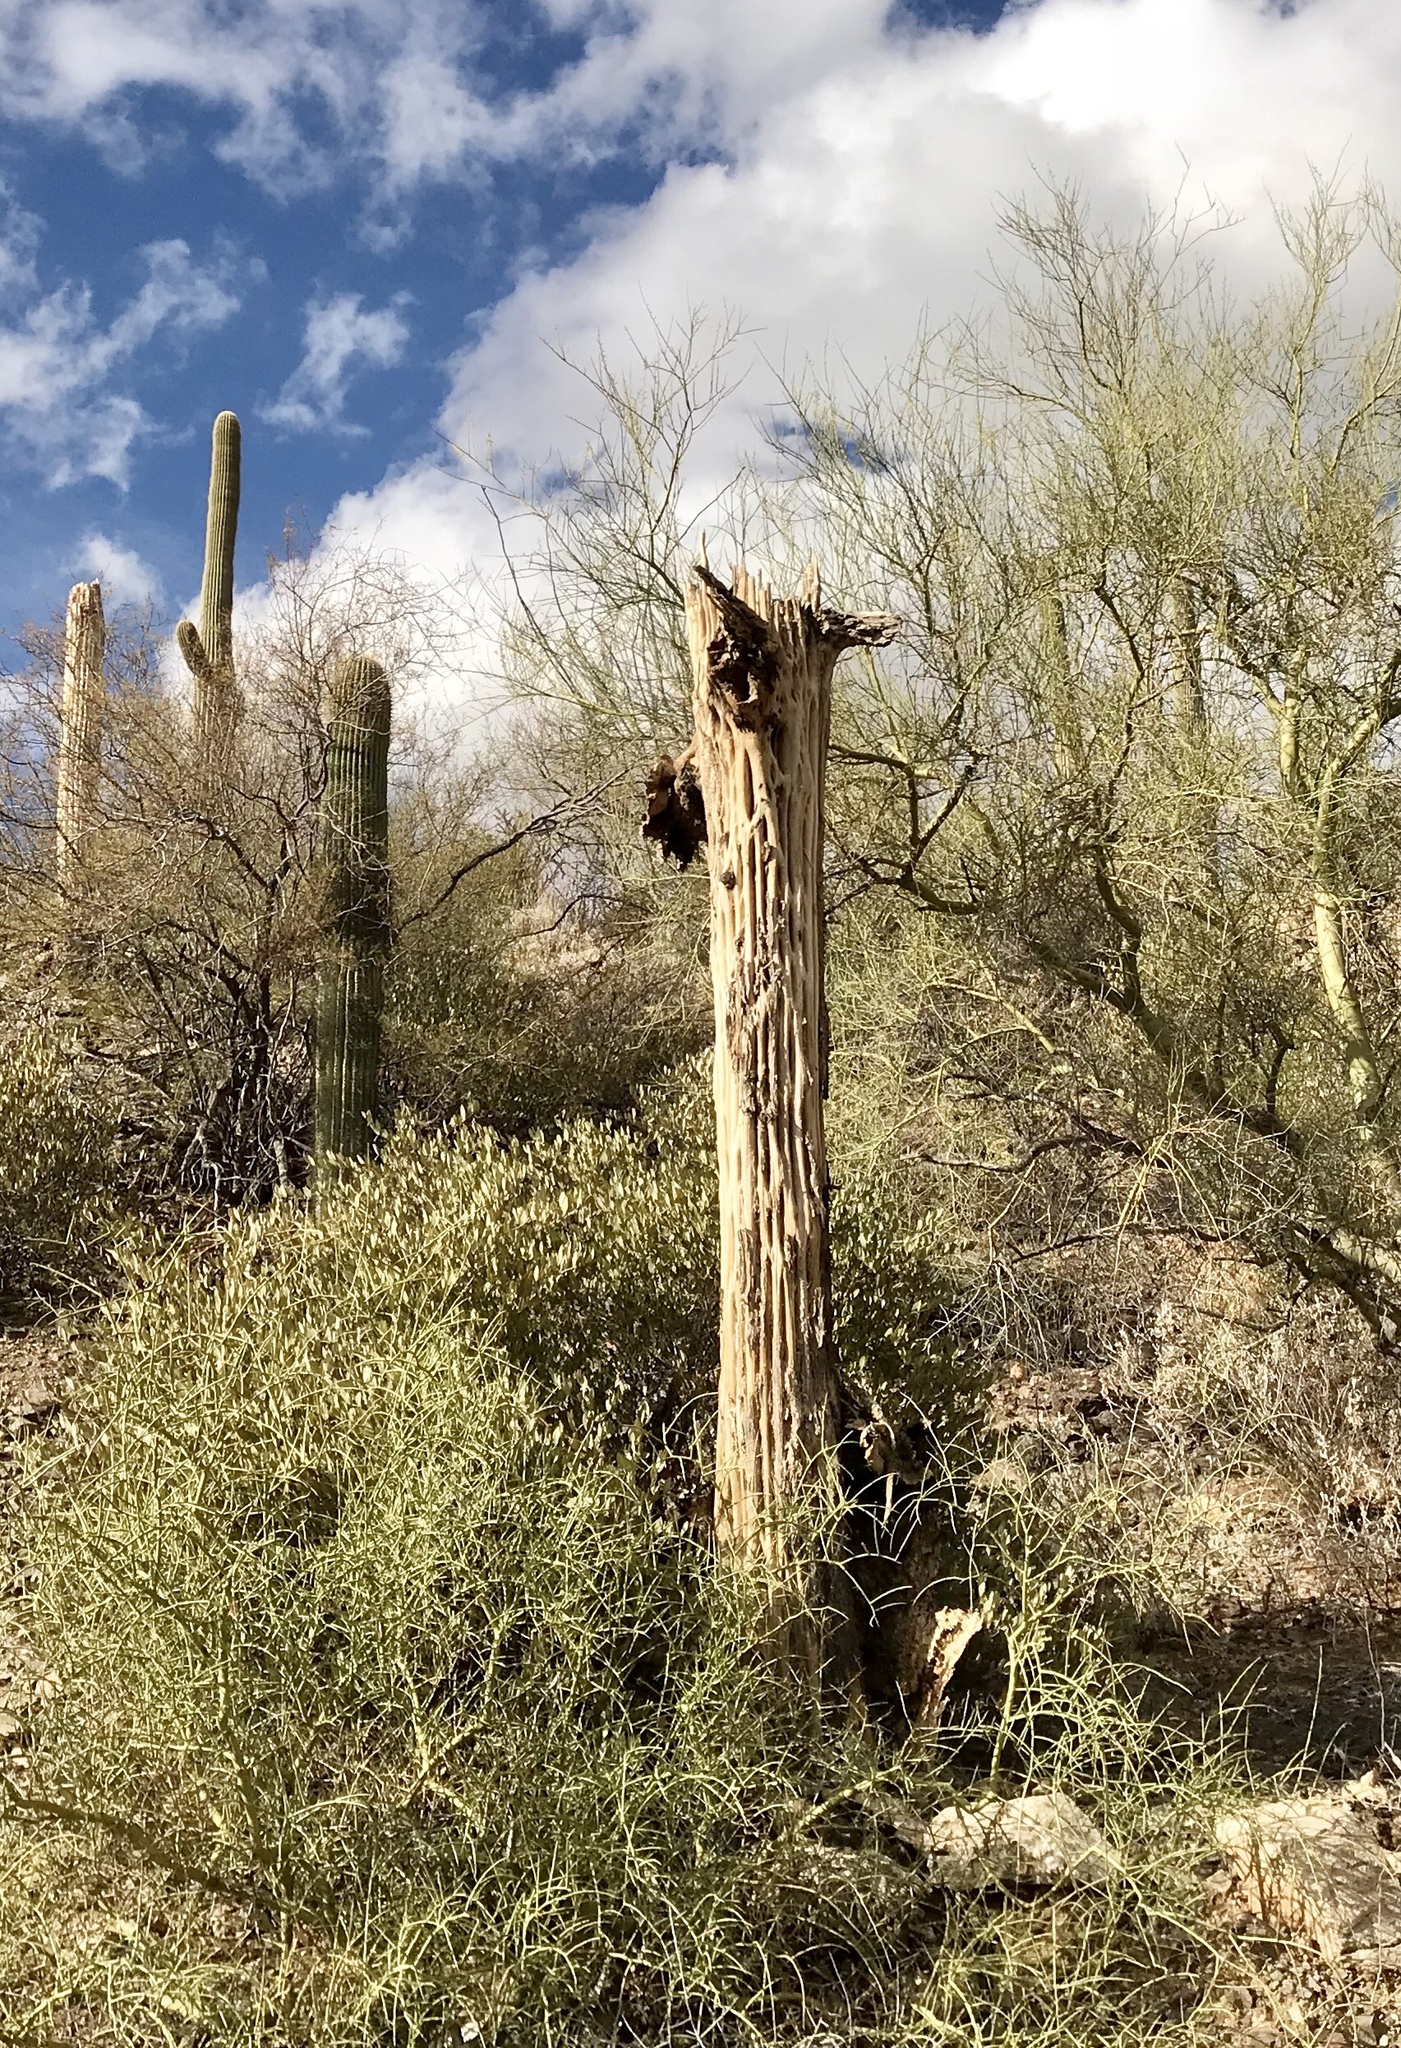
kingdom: Plantae
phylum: Tracheophyta
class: Magnoliopsida
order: Caryophyllales
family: Cactaceae
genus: Carnegiea
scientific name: Carnegiea gigantea
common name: Saguaro
